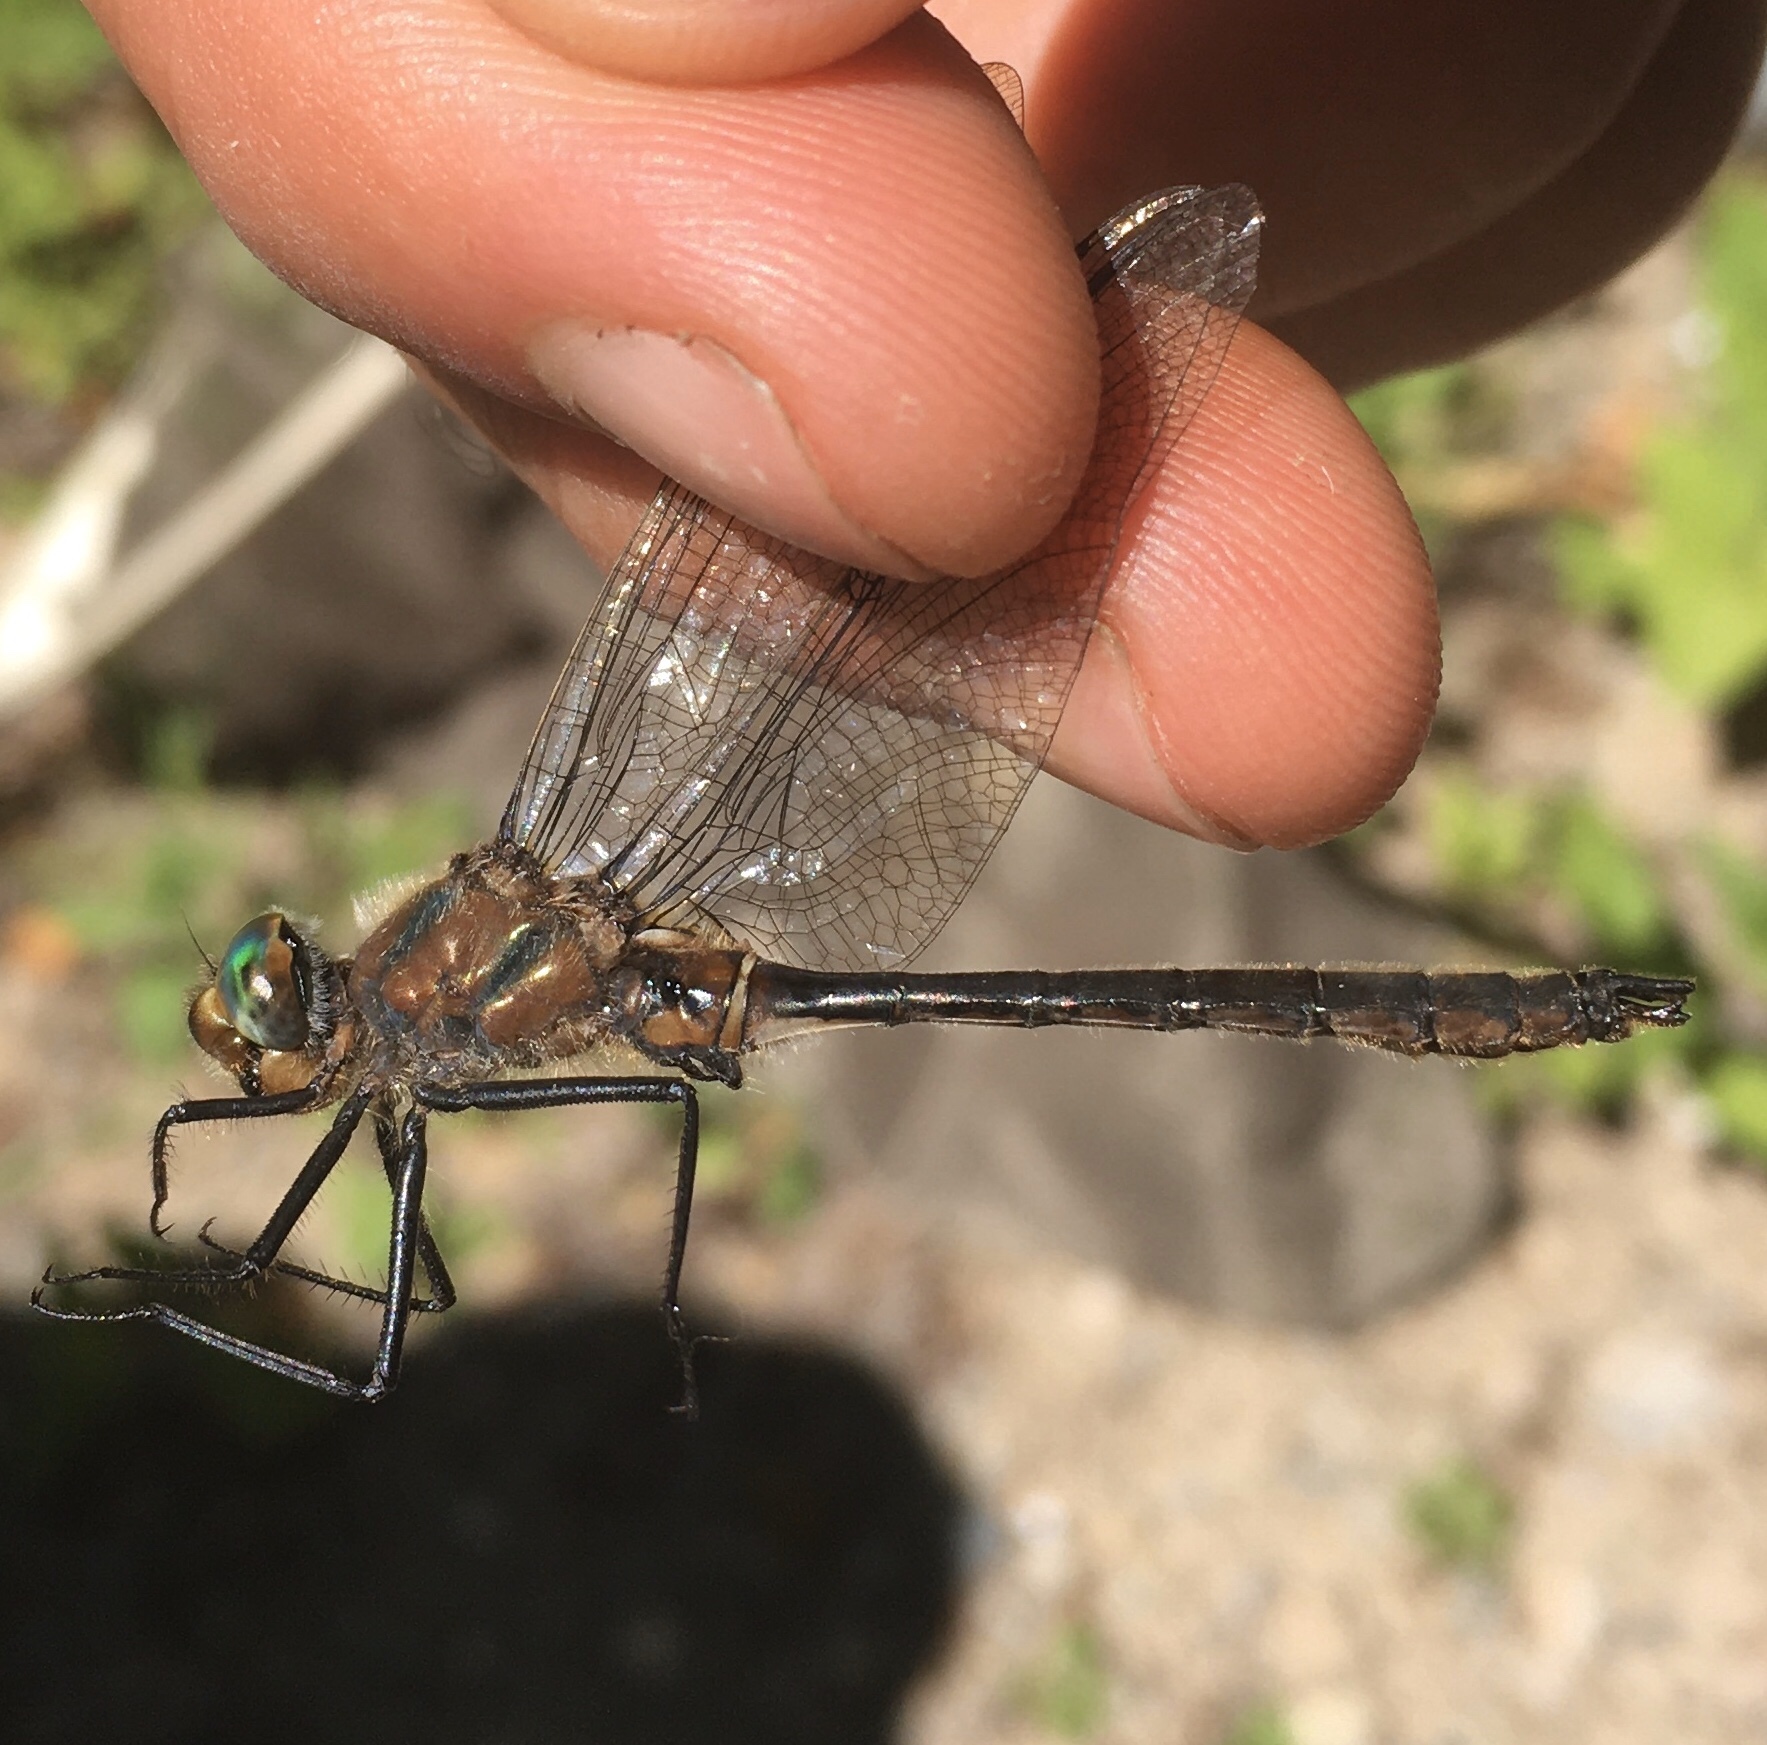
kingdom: Animalia
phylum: Arthropoda
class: Insecta
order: Odonata
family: Corduliidae
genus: Cordulia
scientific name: Cordulia shurtleffii
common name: American emerald
